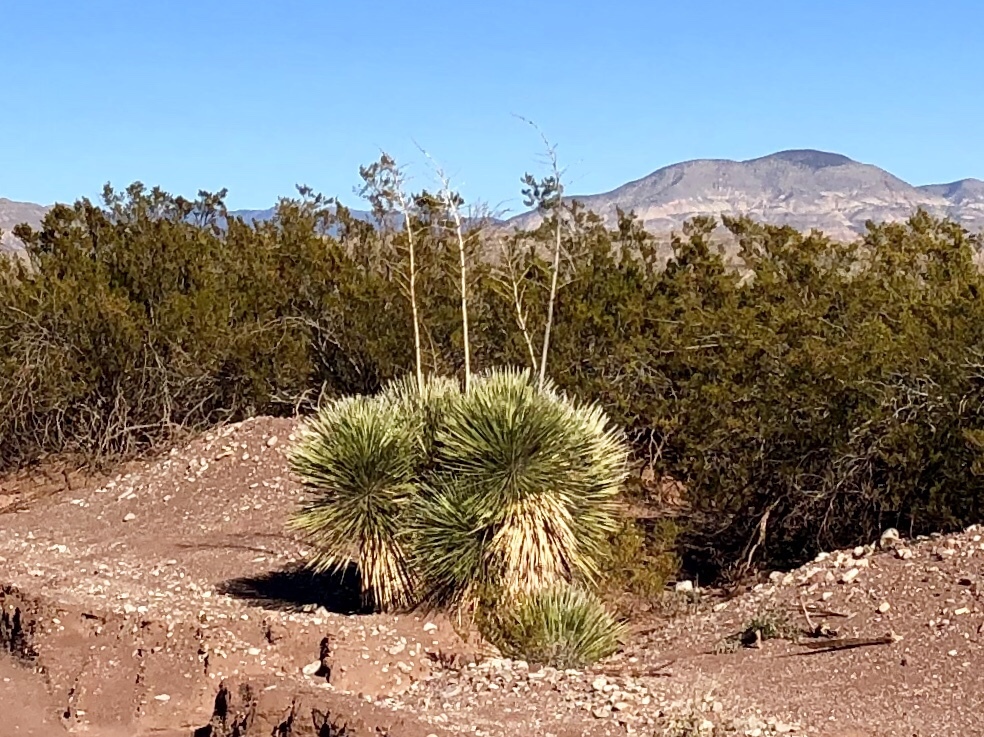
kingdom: Plantae
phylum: Tracheophyta
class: Liliopsida
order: Asparagales
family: Asparagaceae
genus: Yucca
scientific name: Yucca elata
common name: Palmella
